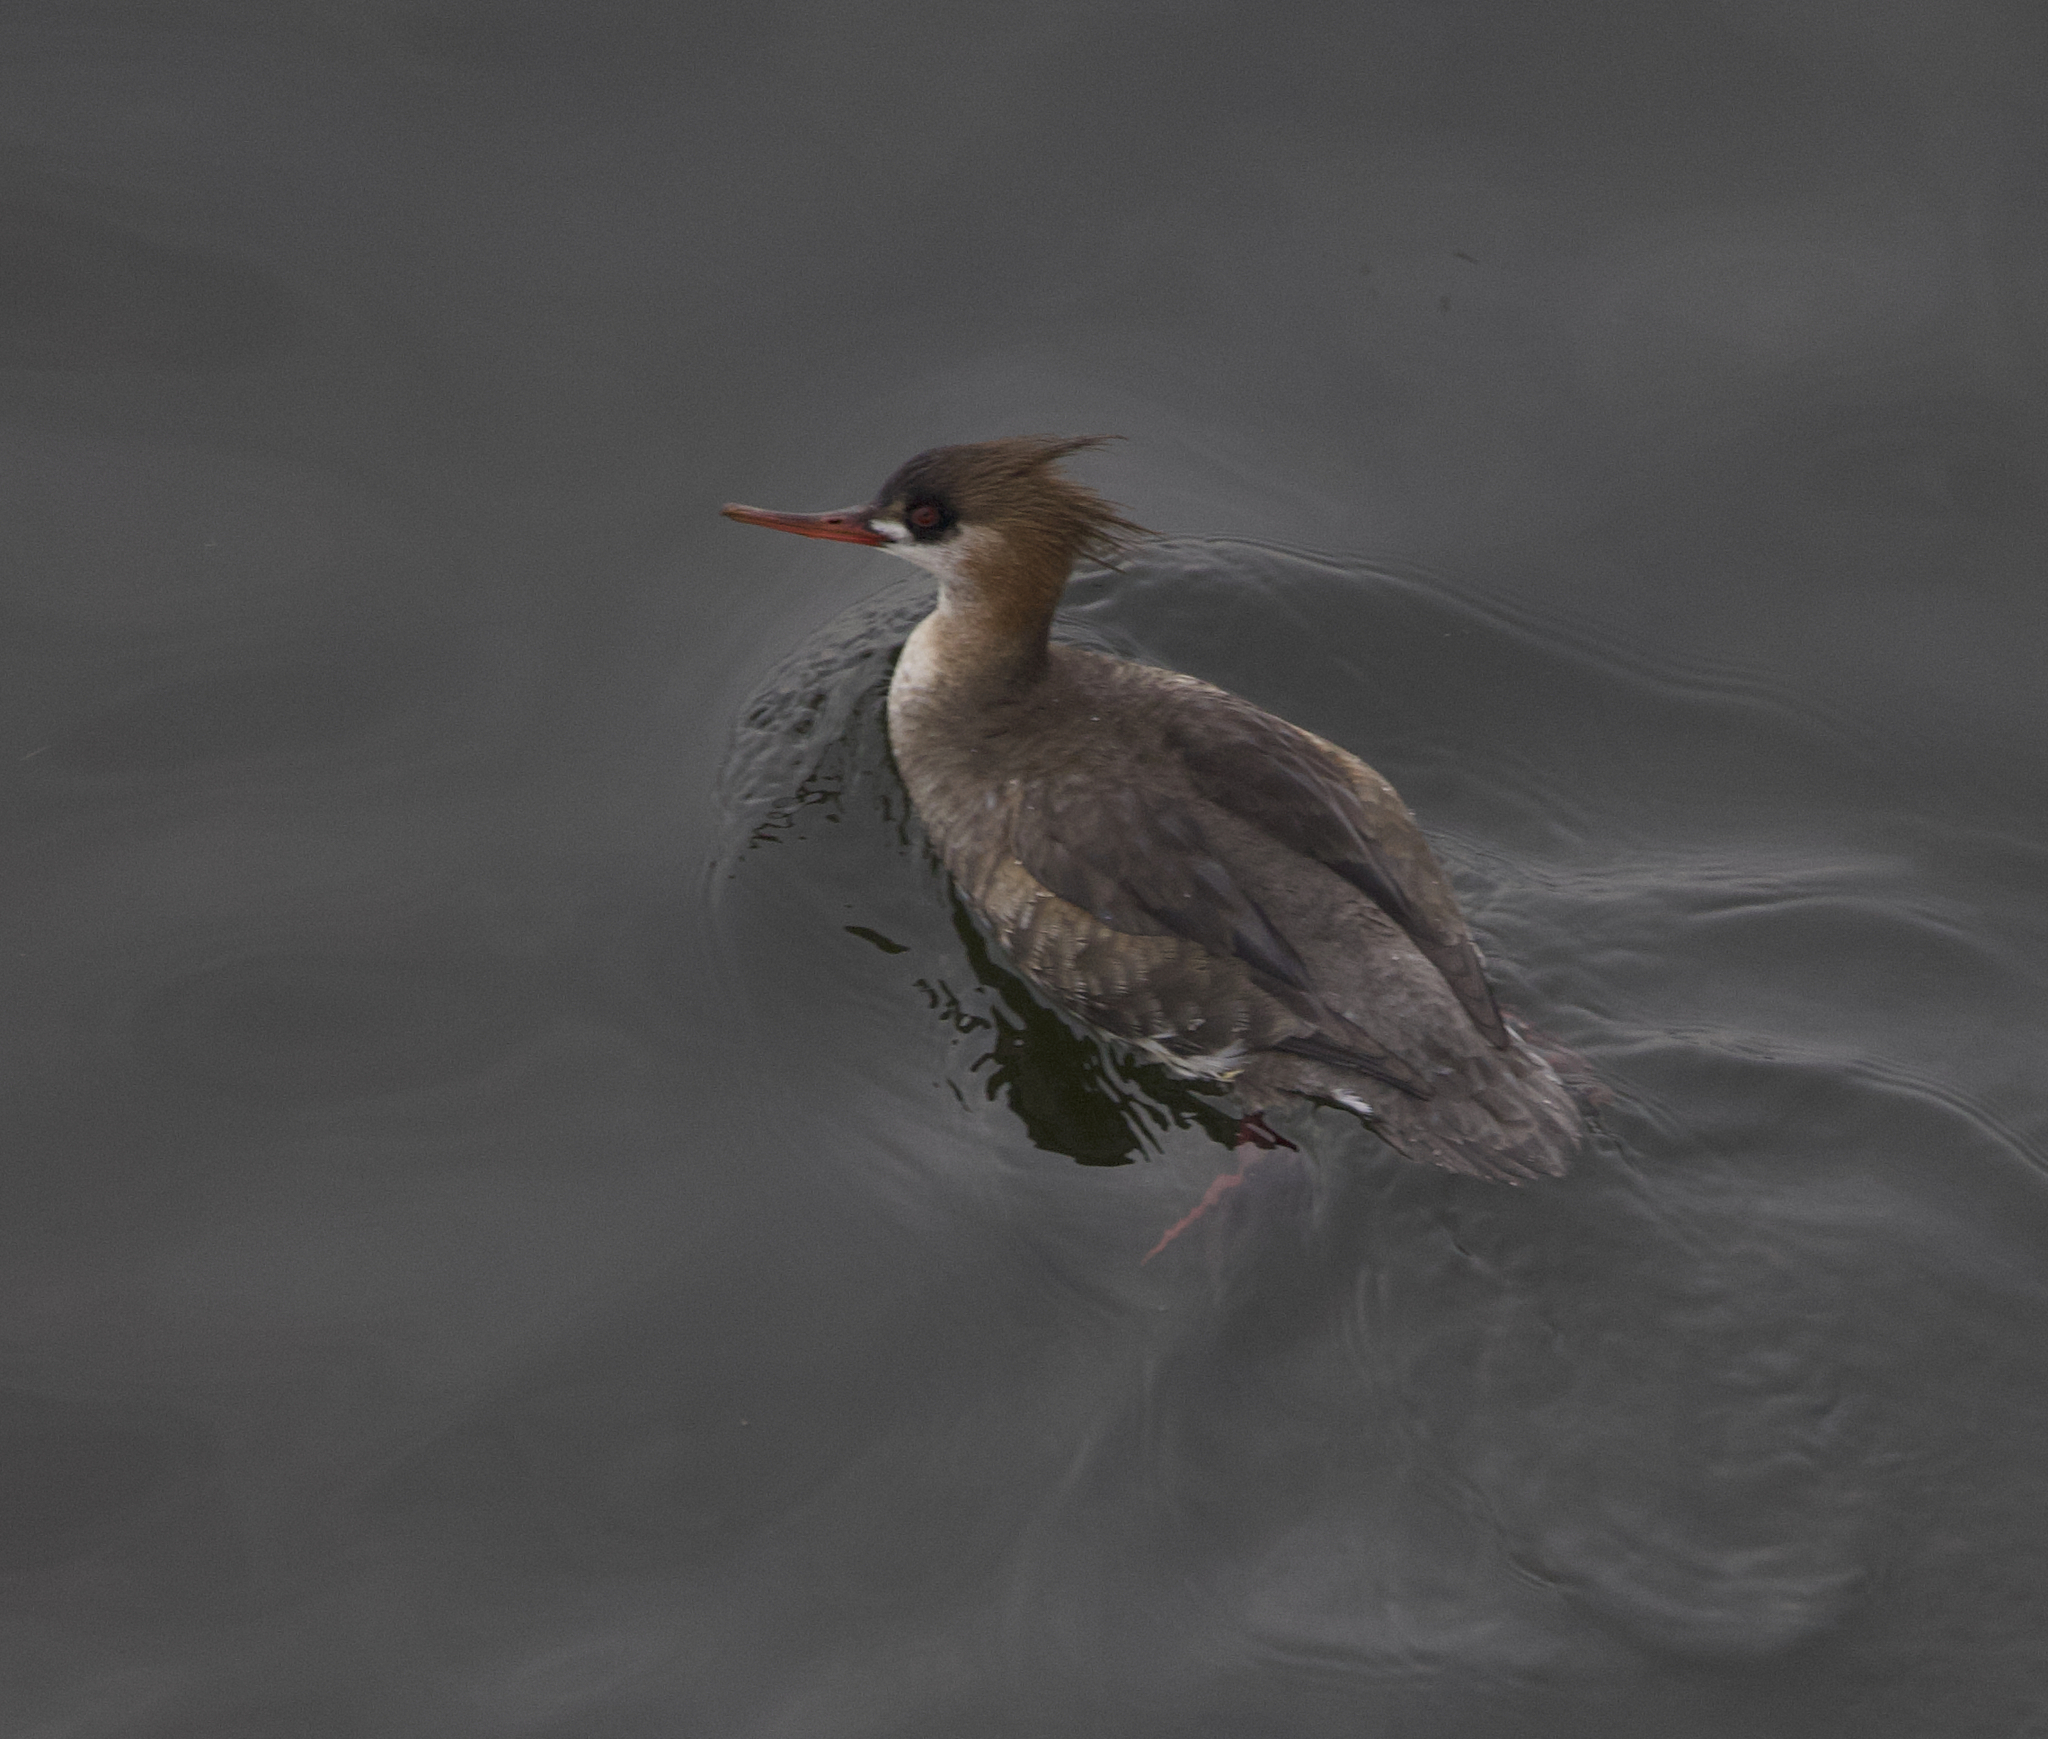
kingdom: Animalia
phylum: Chordata
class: Aves
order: Anseriformes
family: Anatidae
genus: Mergus
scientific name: Mergus serrator
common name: Red-breasted merganser
